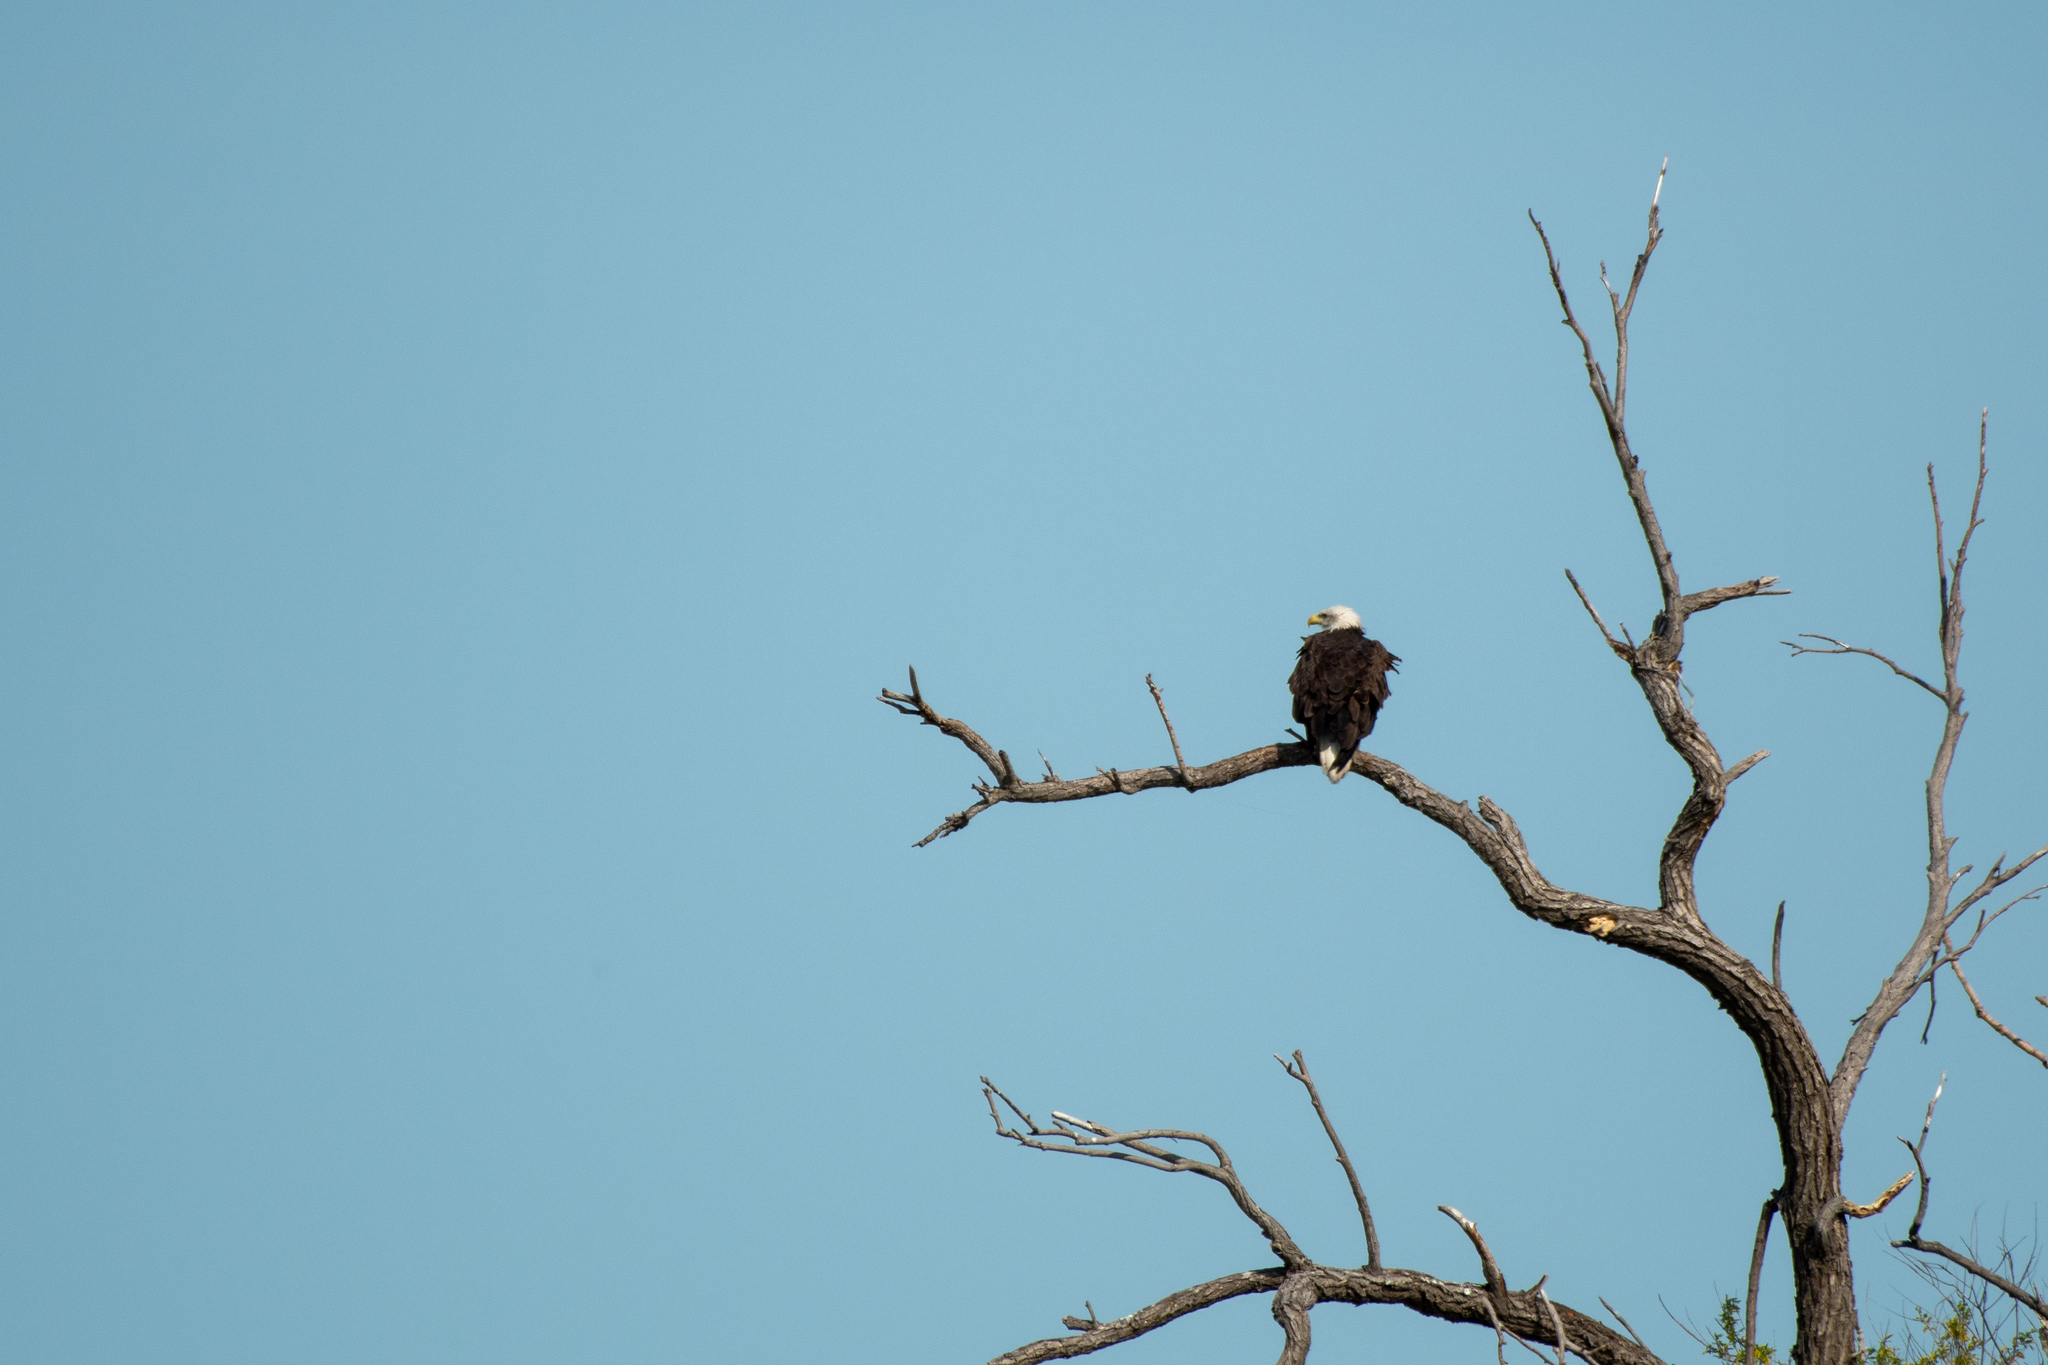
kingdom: Animalia
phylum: Chordata
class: Aves
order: Accipitriformes
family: Accipitridae
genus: Haliaeetus
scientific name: Haliaeetus leucocephalus
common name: Bald eagle
